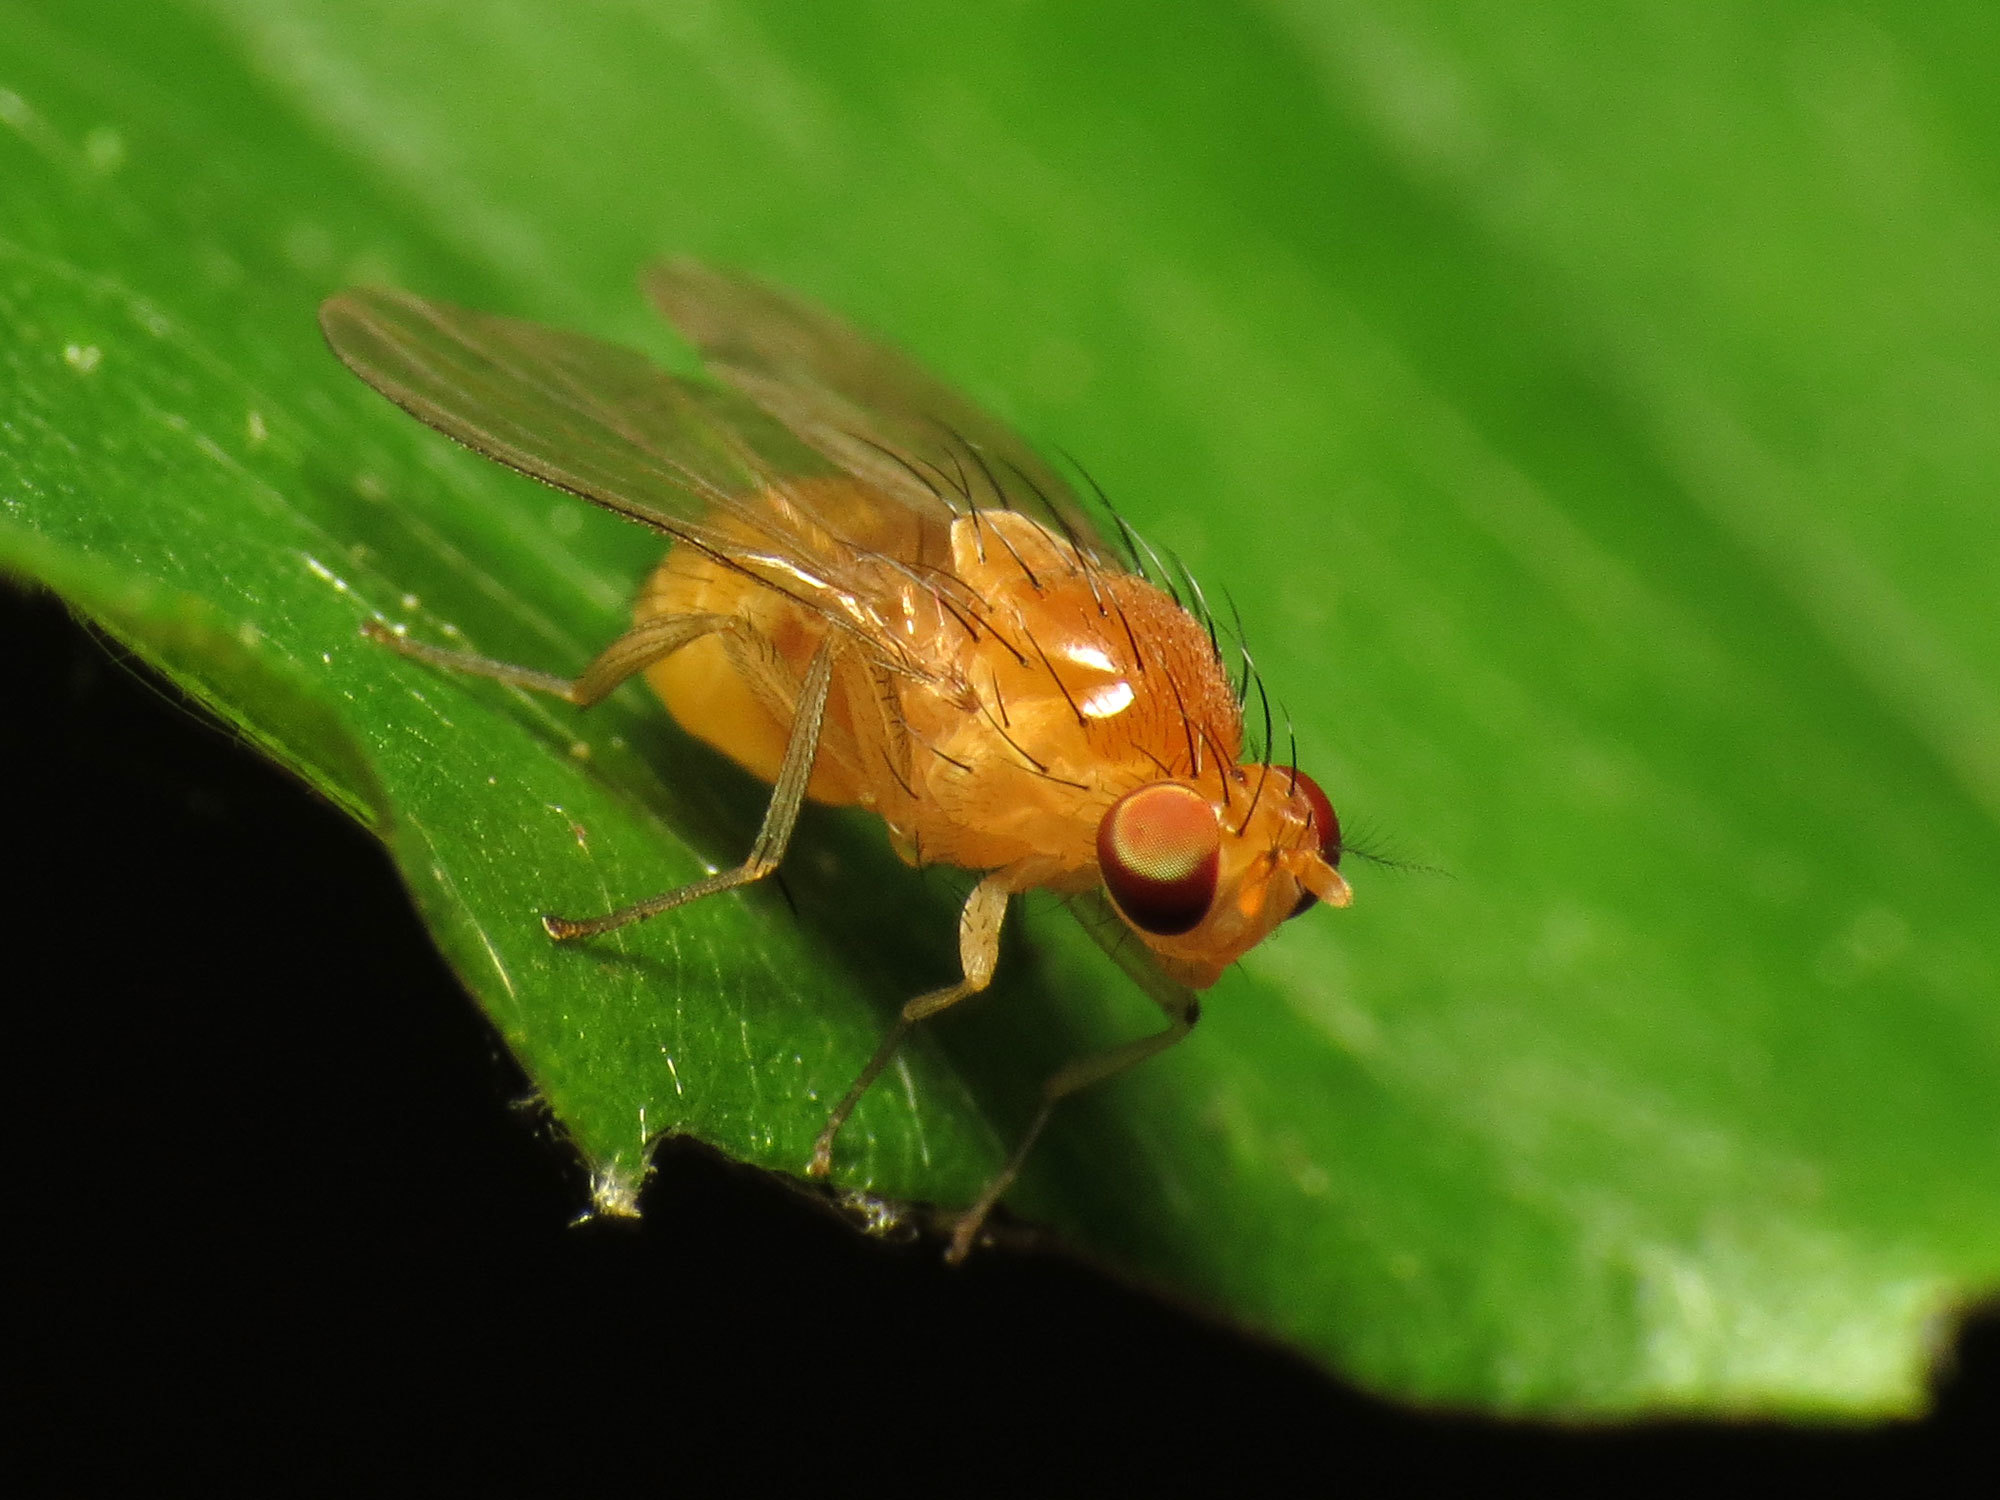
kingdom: Animalia
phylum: Arthropoda
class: Insecta
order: Diptera
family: Lauxaniidae
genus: Neogriphoneura
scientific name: Neogriphoneura sordida
